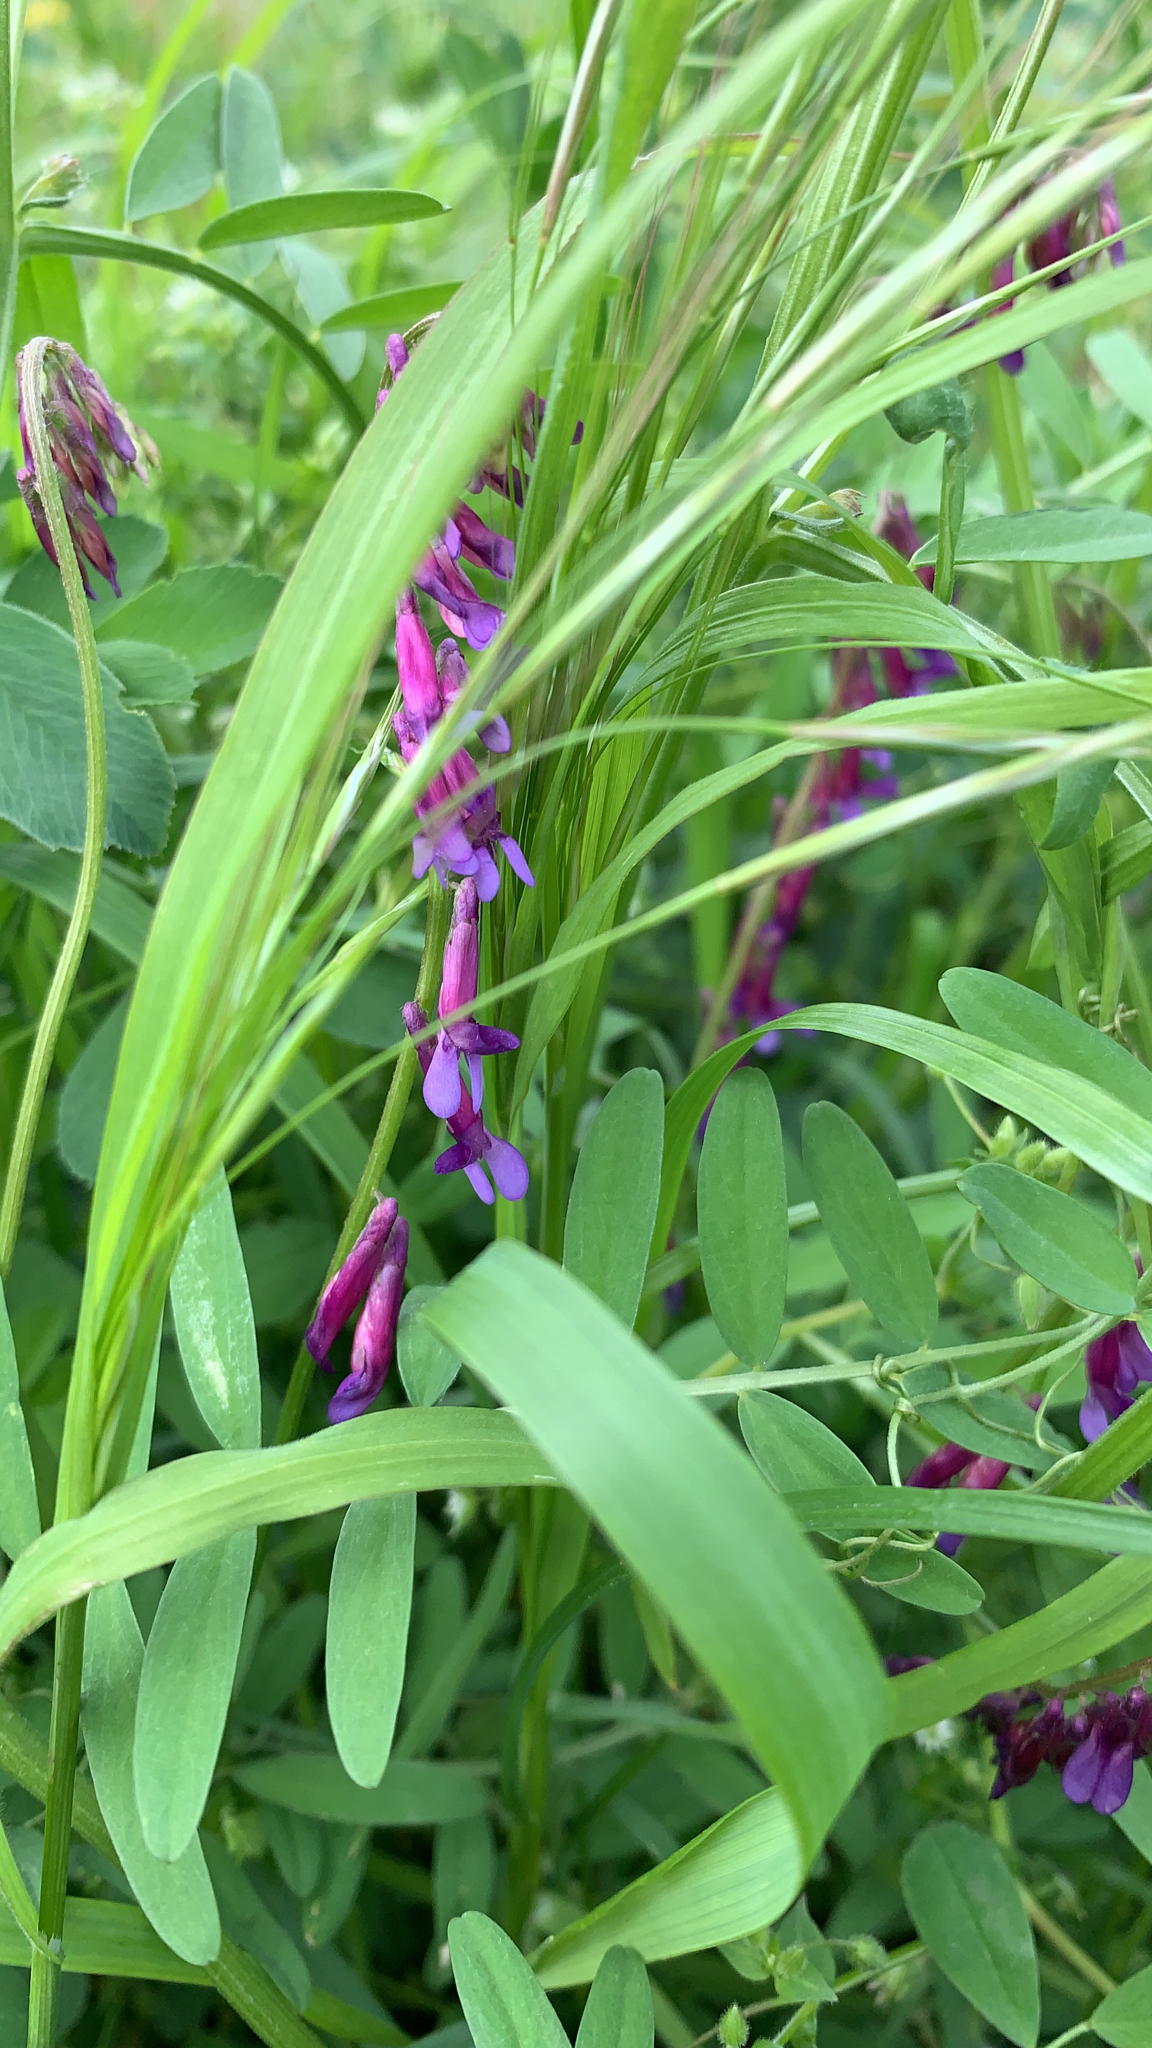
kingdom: Plantae
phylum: Tracheophyta
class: Magnoliopsida
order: Fabales
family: Fabaceae
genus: Vicia
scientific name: Vicia villosa
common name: Fodder vetch
